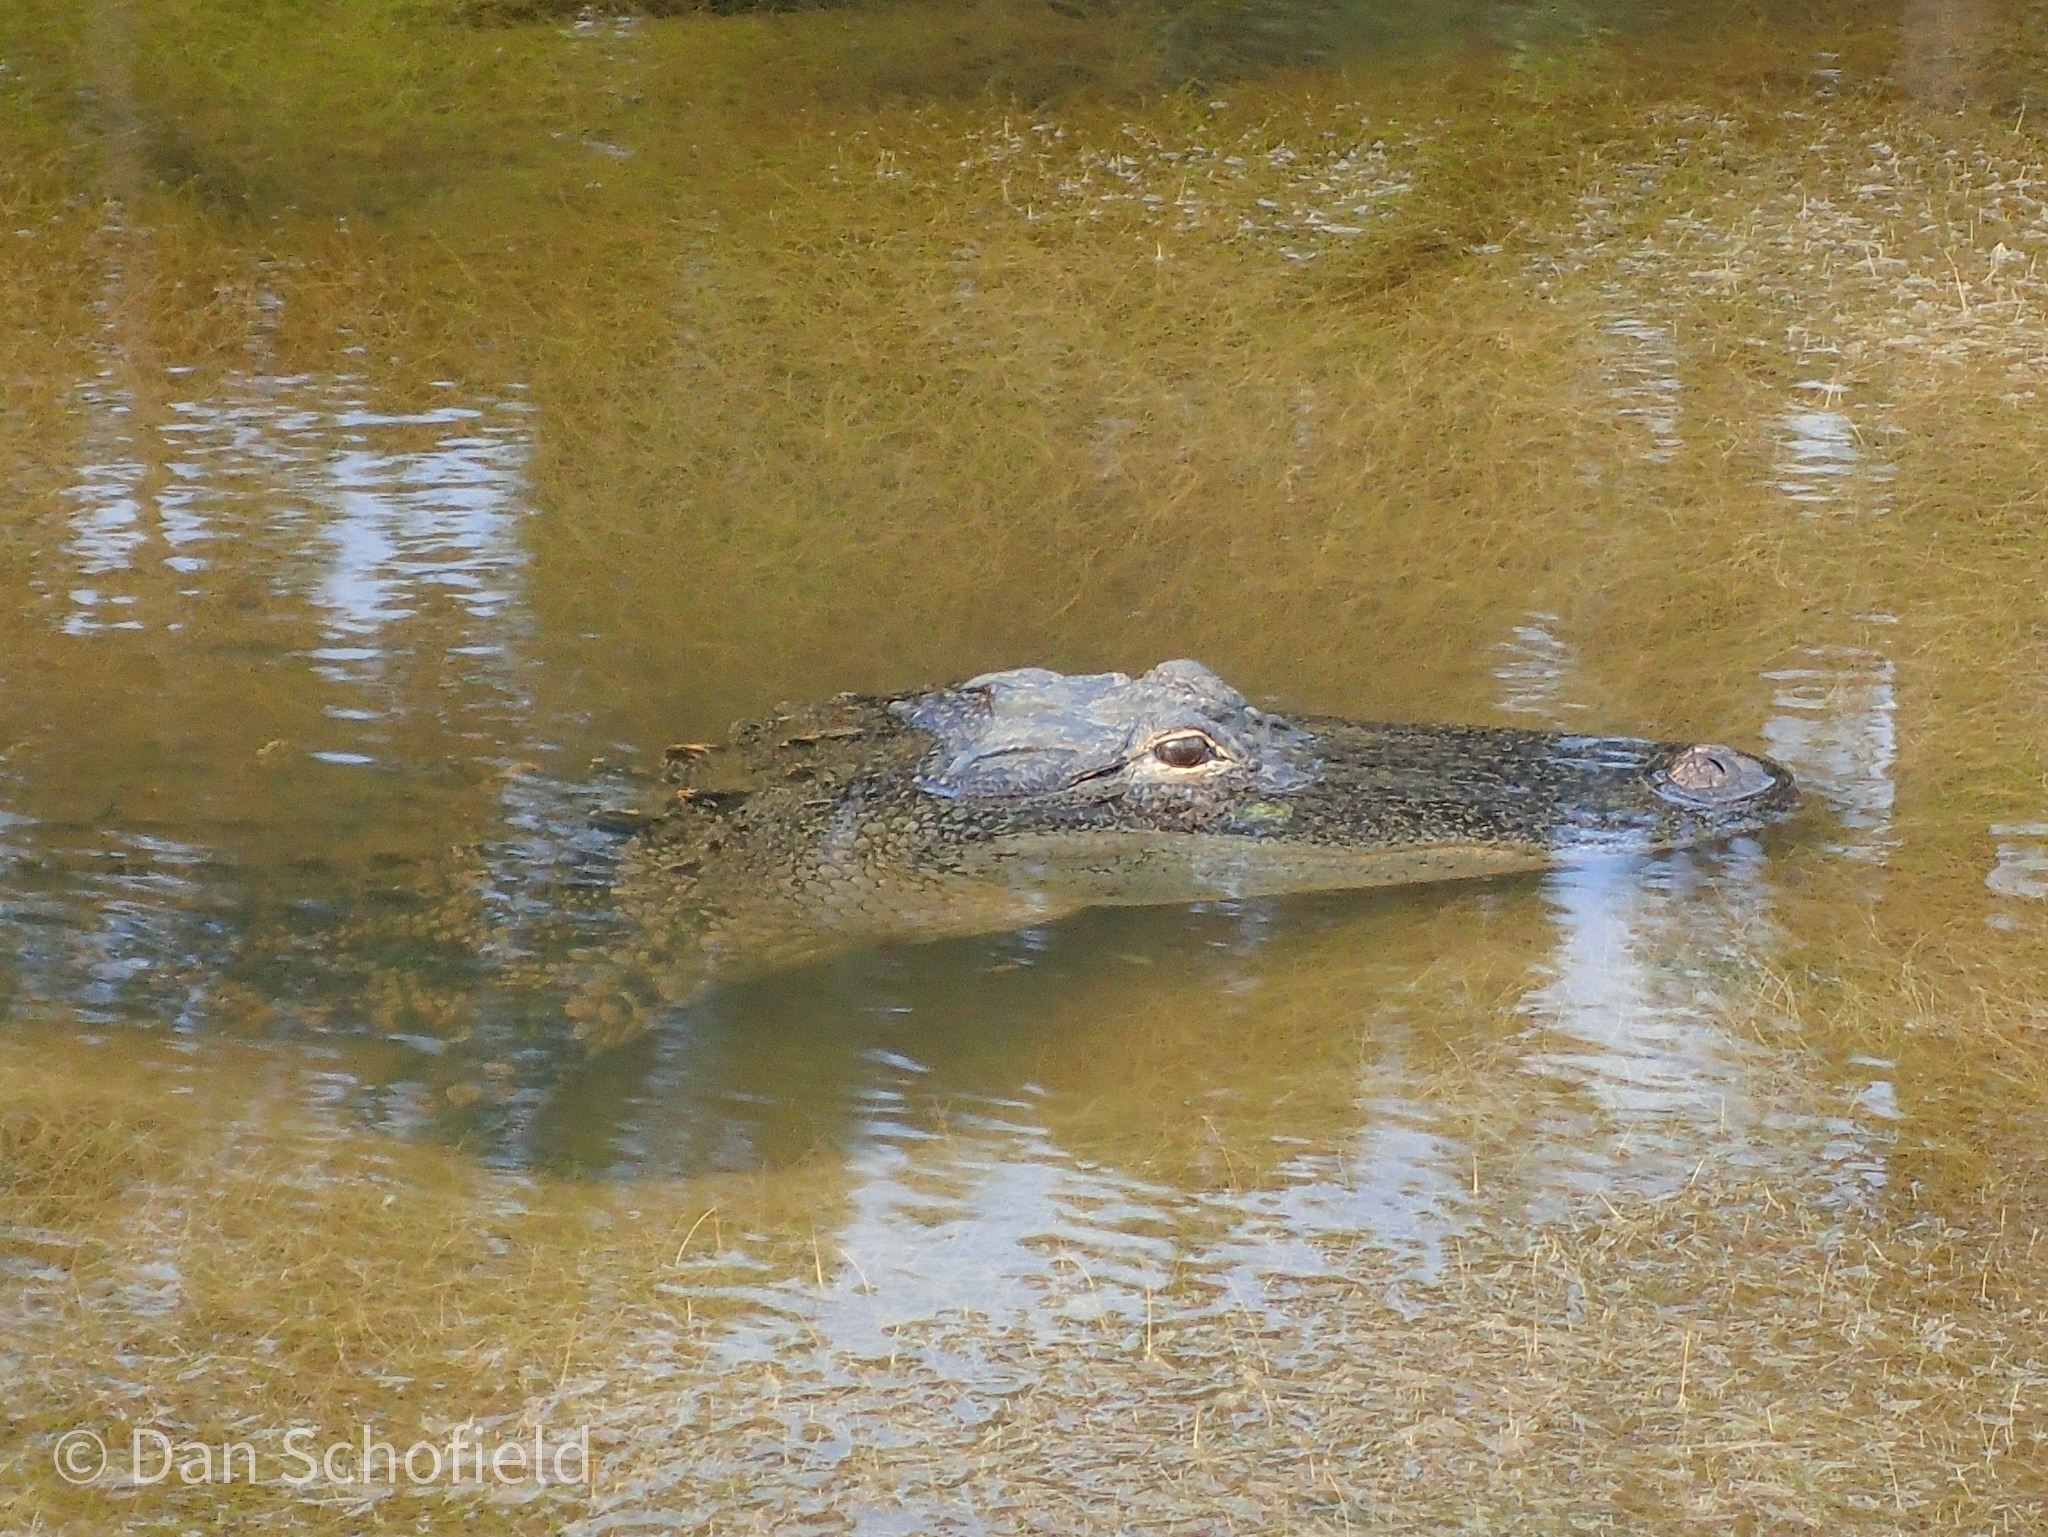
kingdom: Animalia
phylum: Chordata
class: Crocodylia
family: Alligatoridae
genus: Alligator
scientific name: Alligator mississippiensis
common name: American alligator
